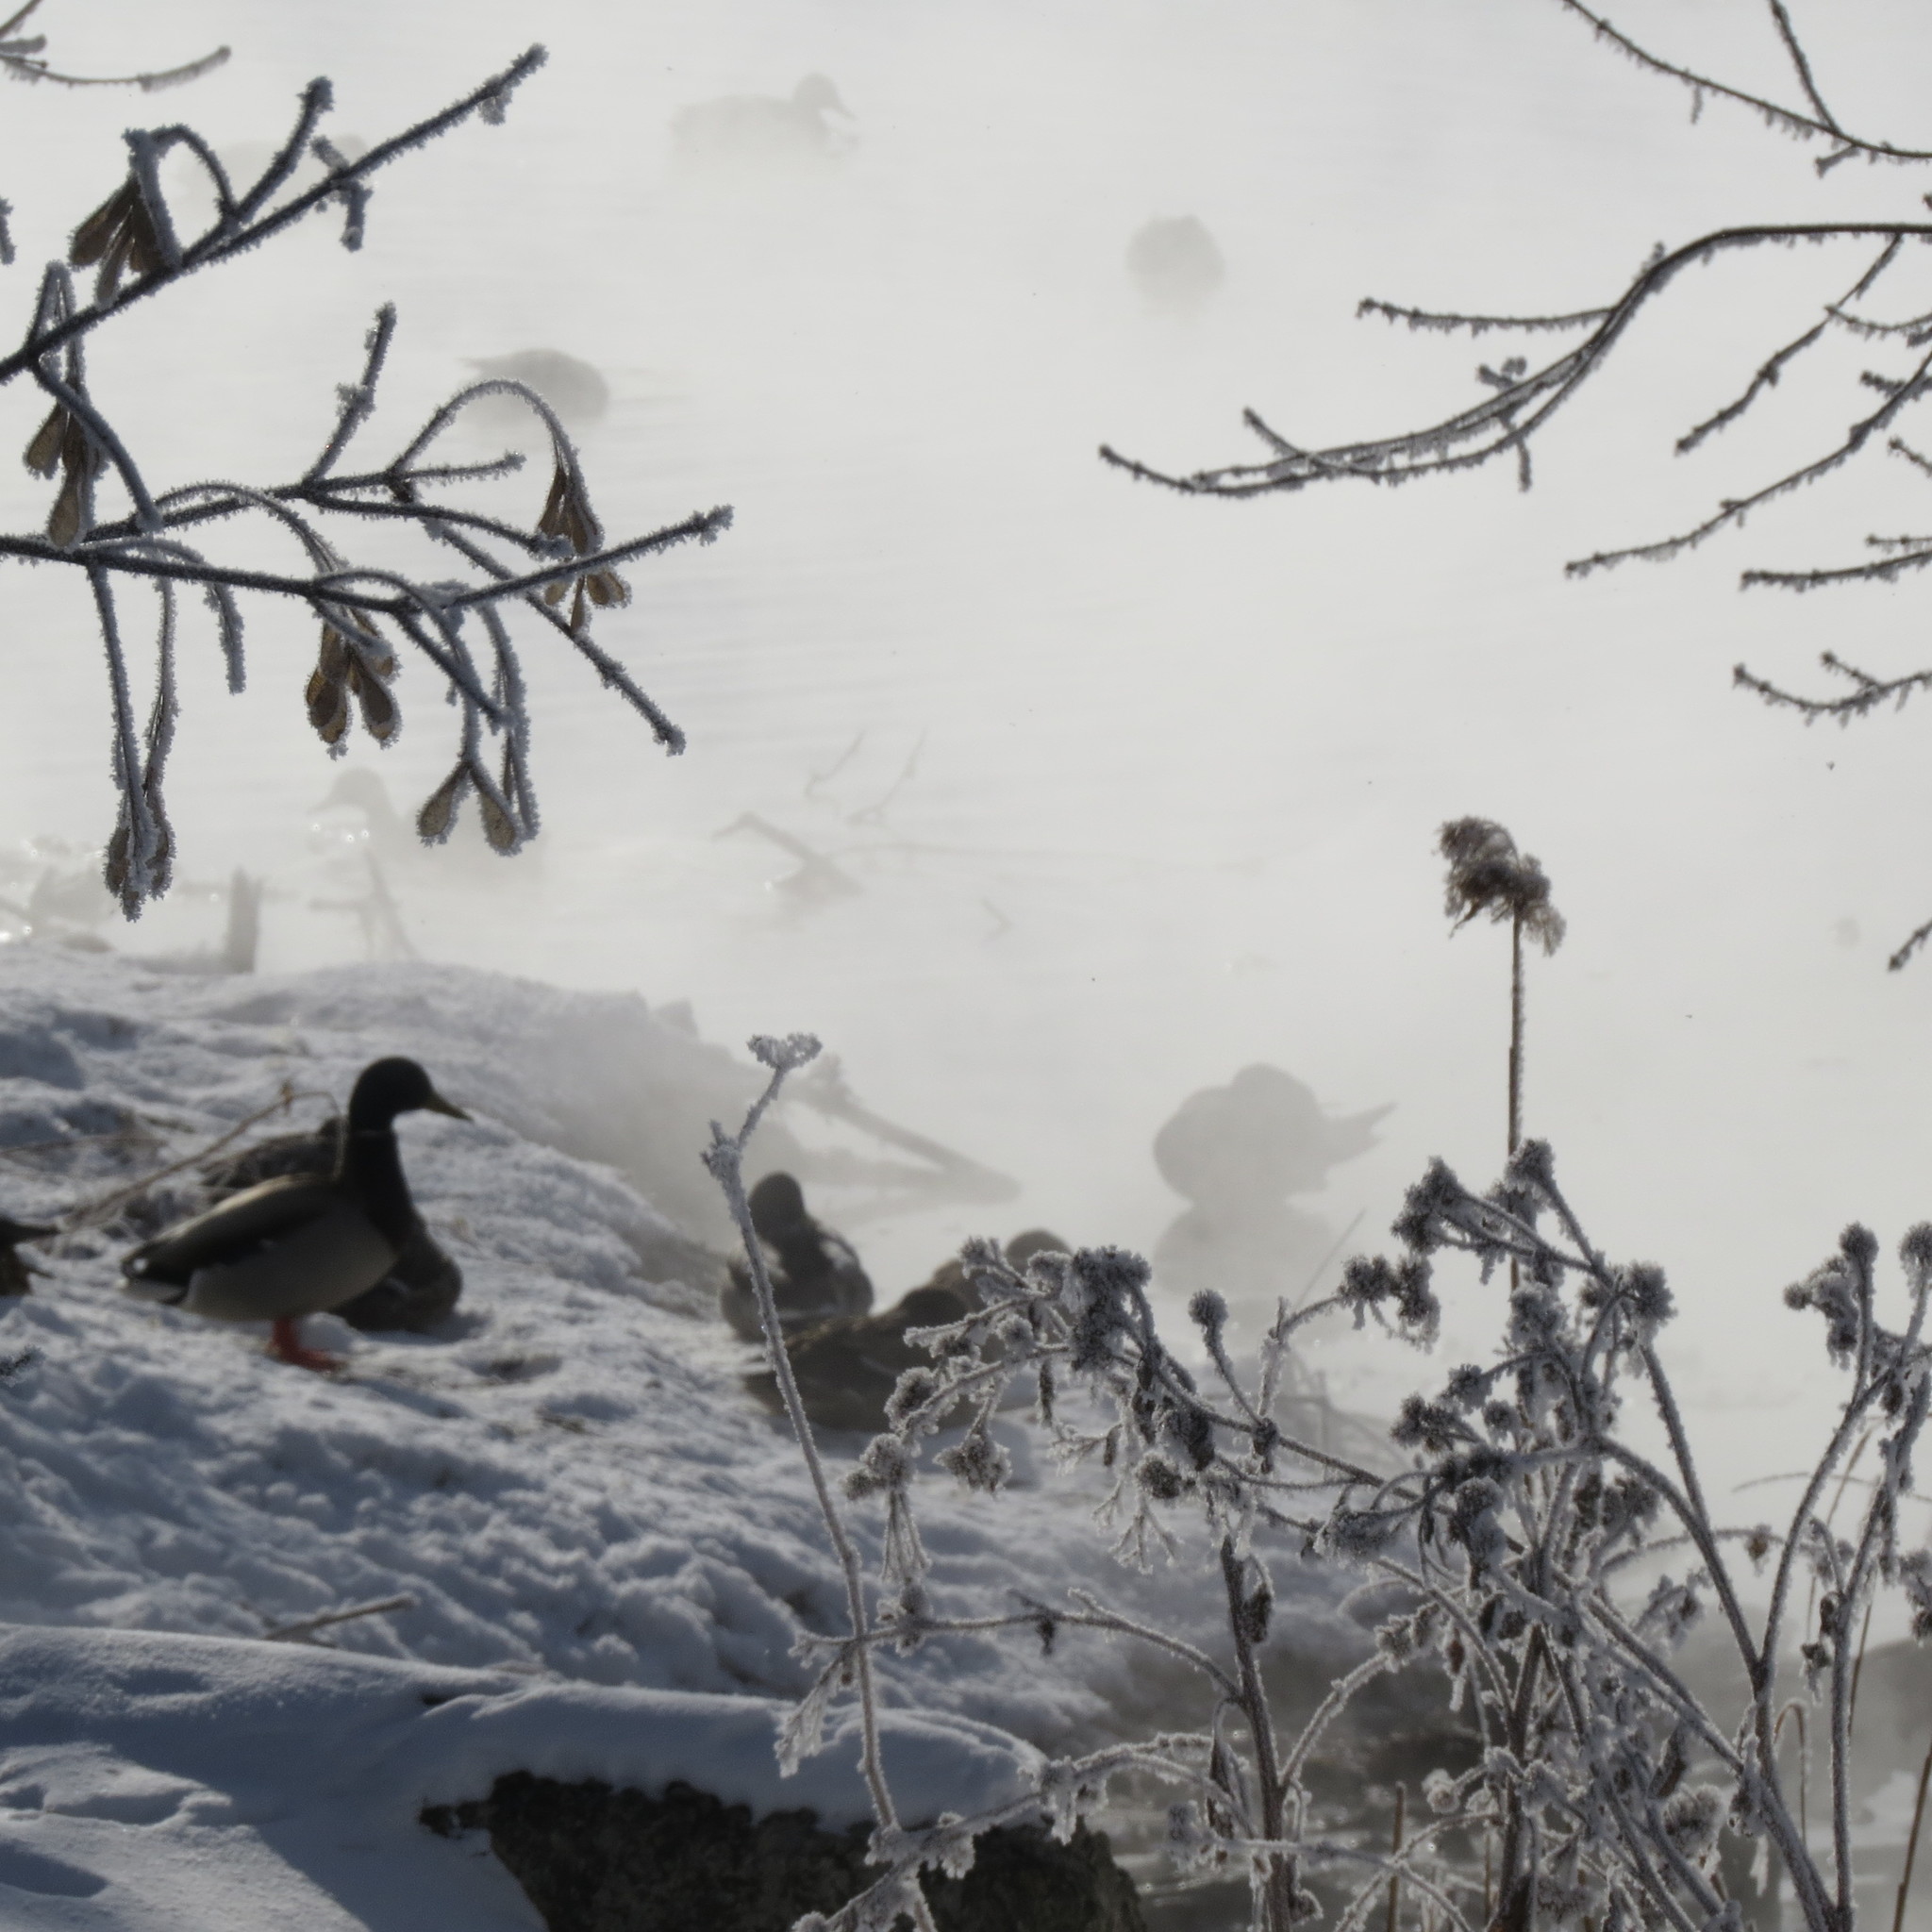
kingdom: Animalia
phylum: Chordata
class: Aves
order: Anseriformes
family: Anatidae
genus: Anas
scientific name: Anas platyrhynchos
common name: Mallard
